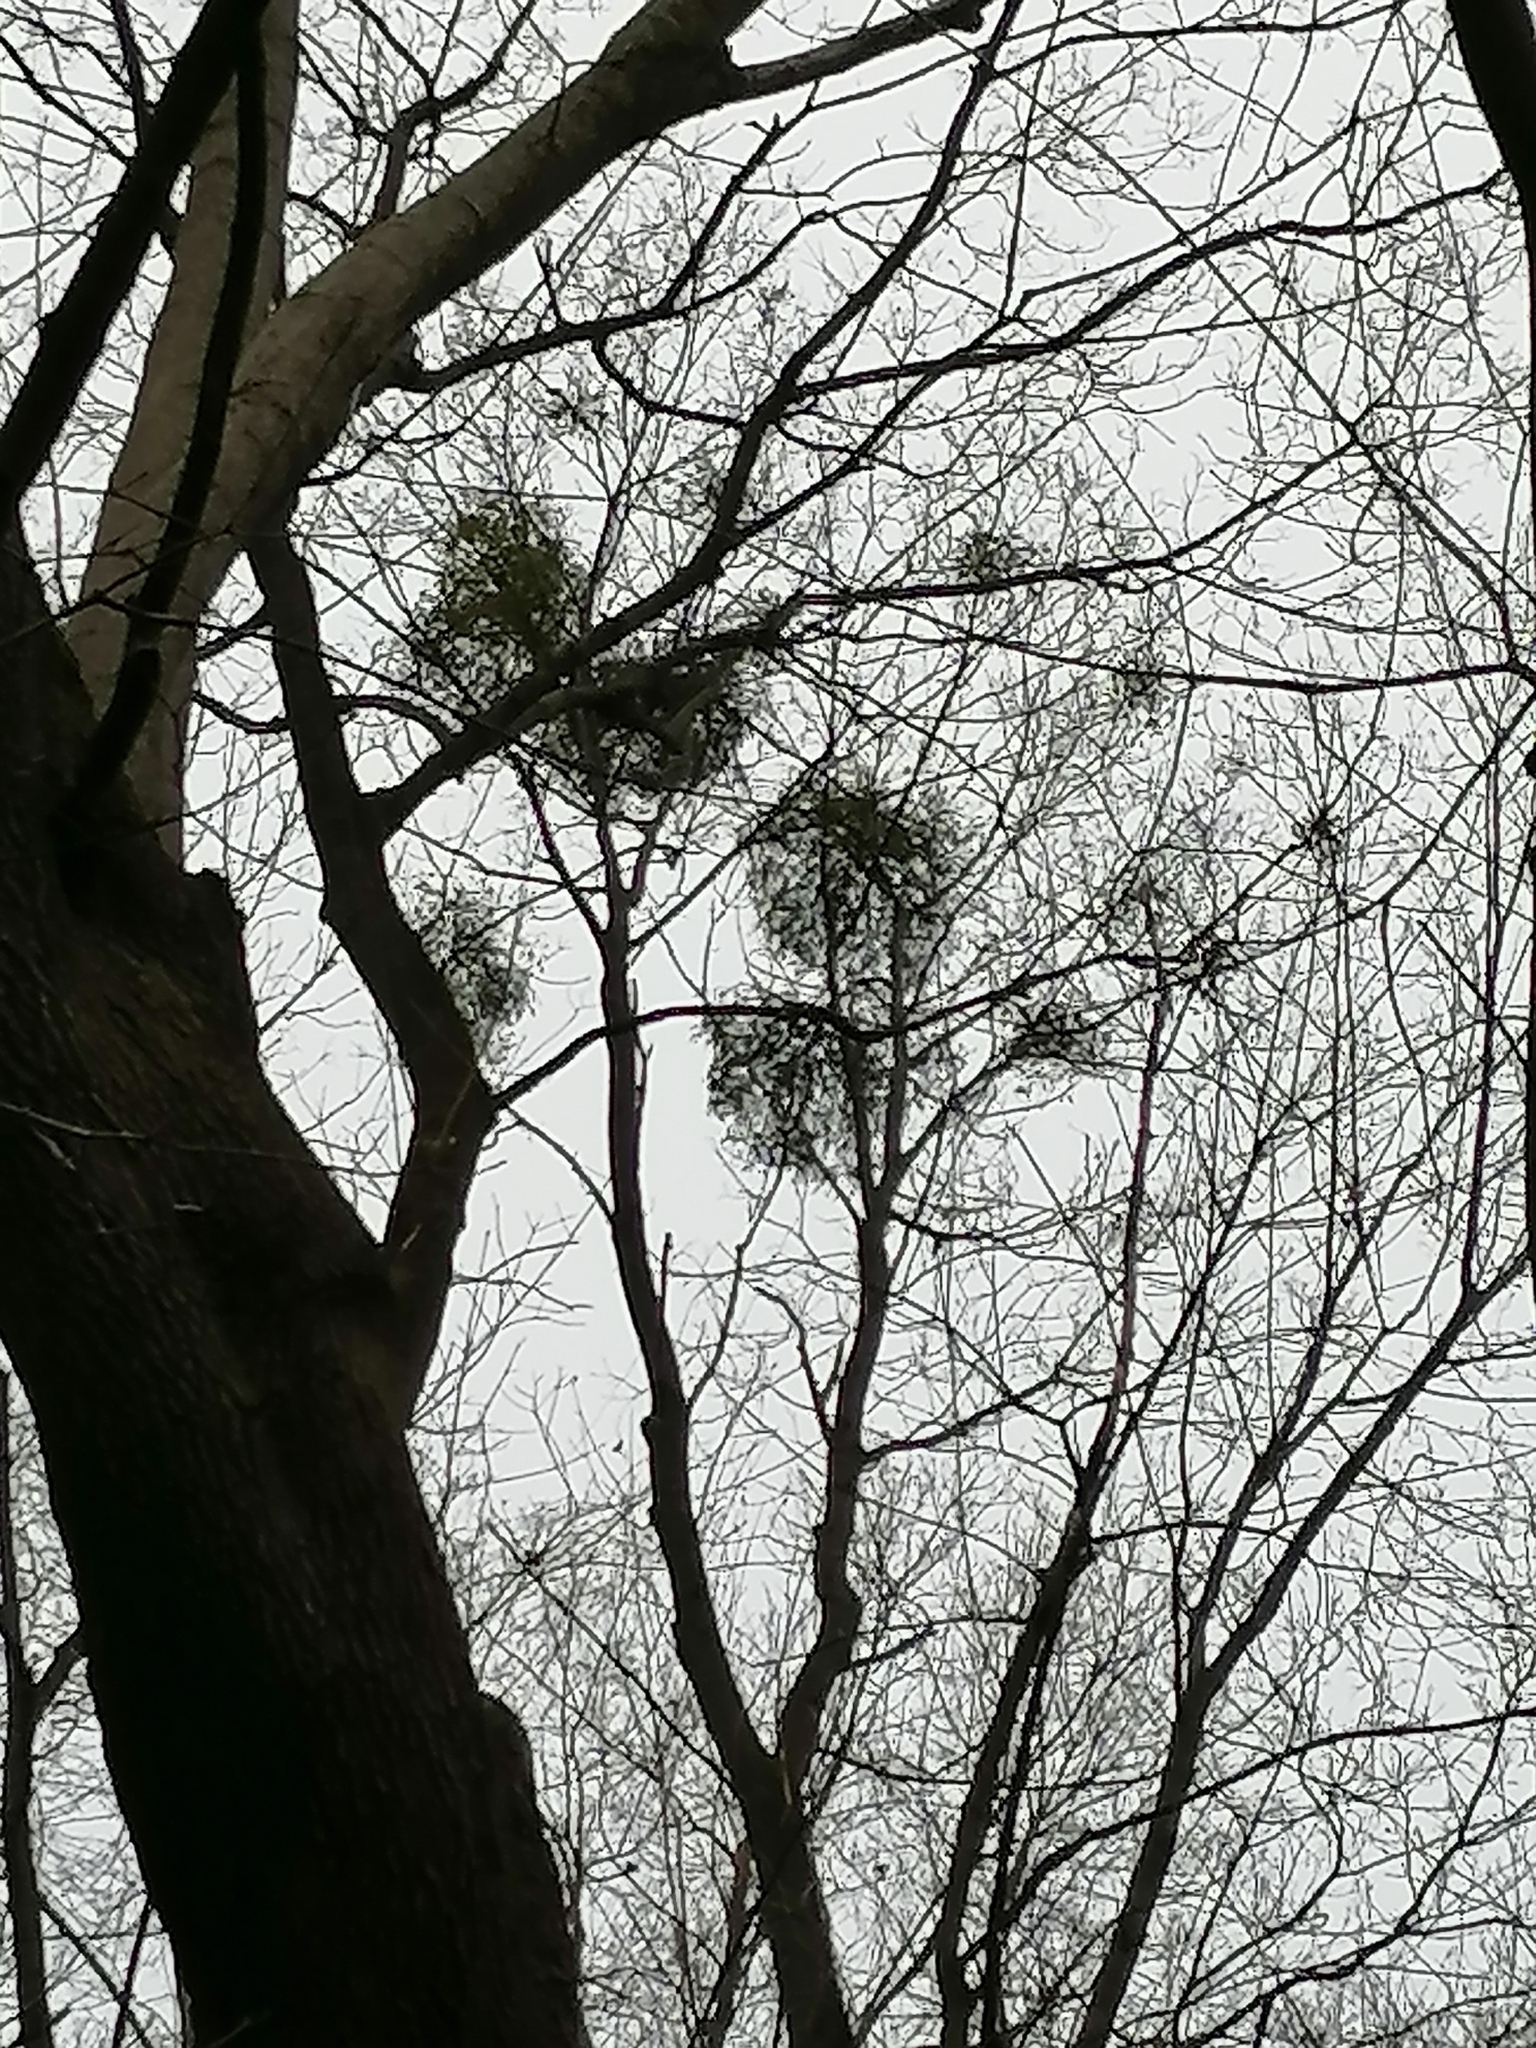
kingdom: Plantae
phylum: Tracheophyta
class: Magnoliopsida
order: Santalales
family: Viscaceae
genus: Viscum
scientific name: Viscum album
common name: Mistletoe
